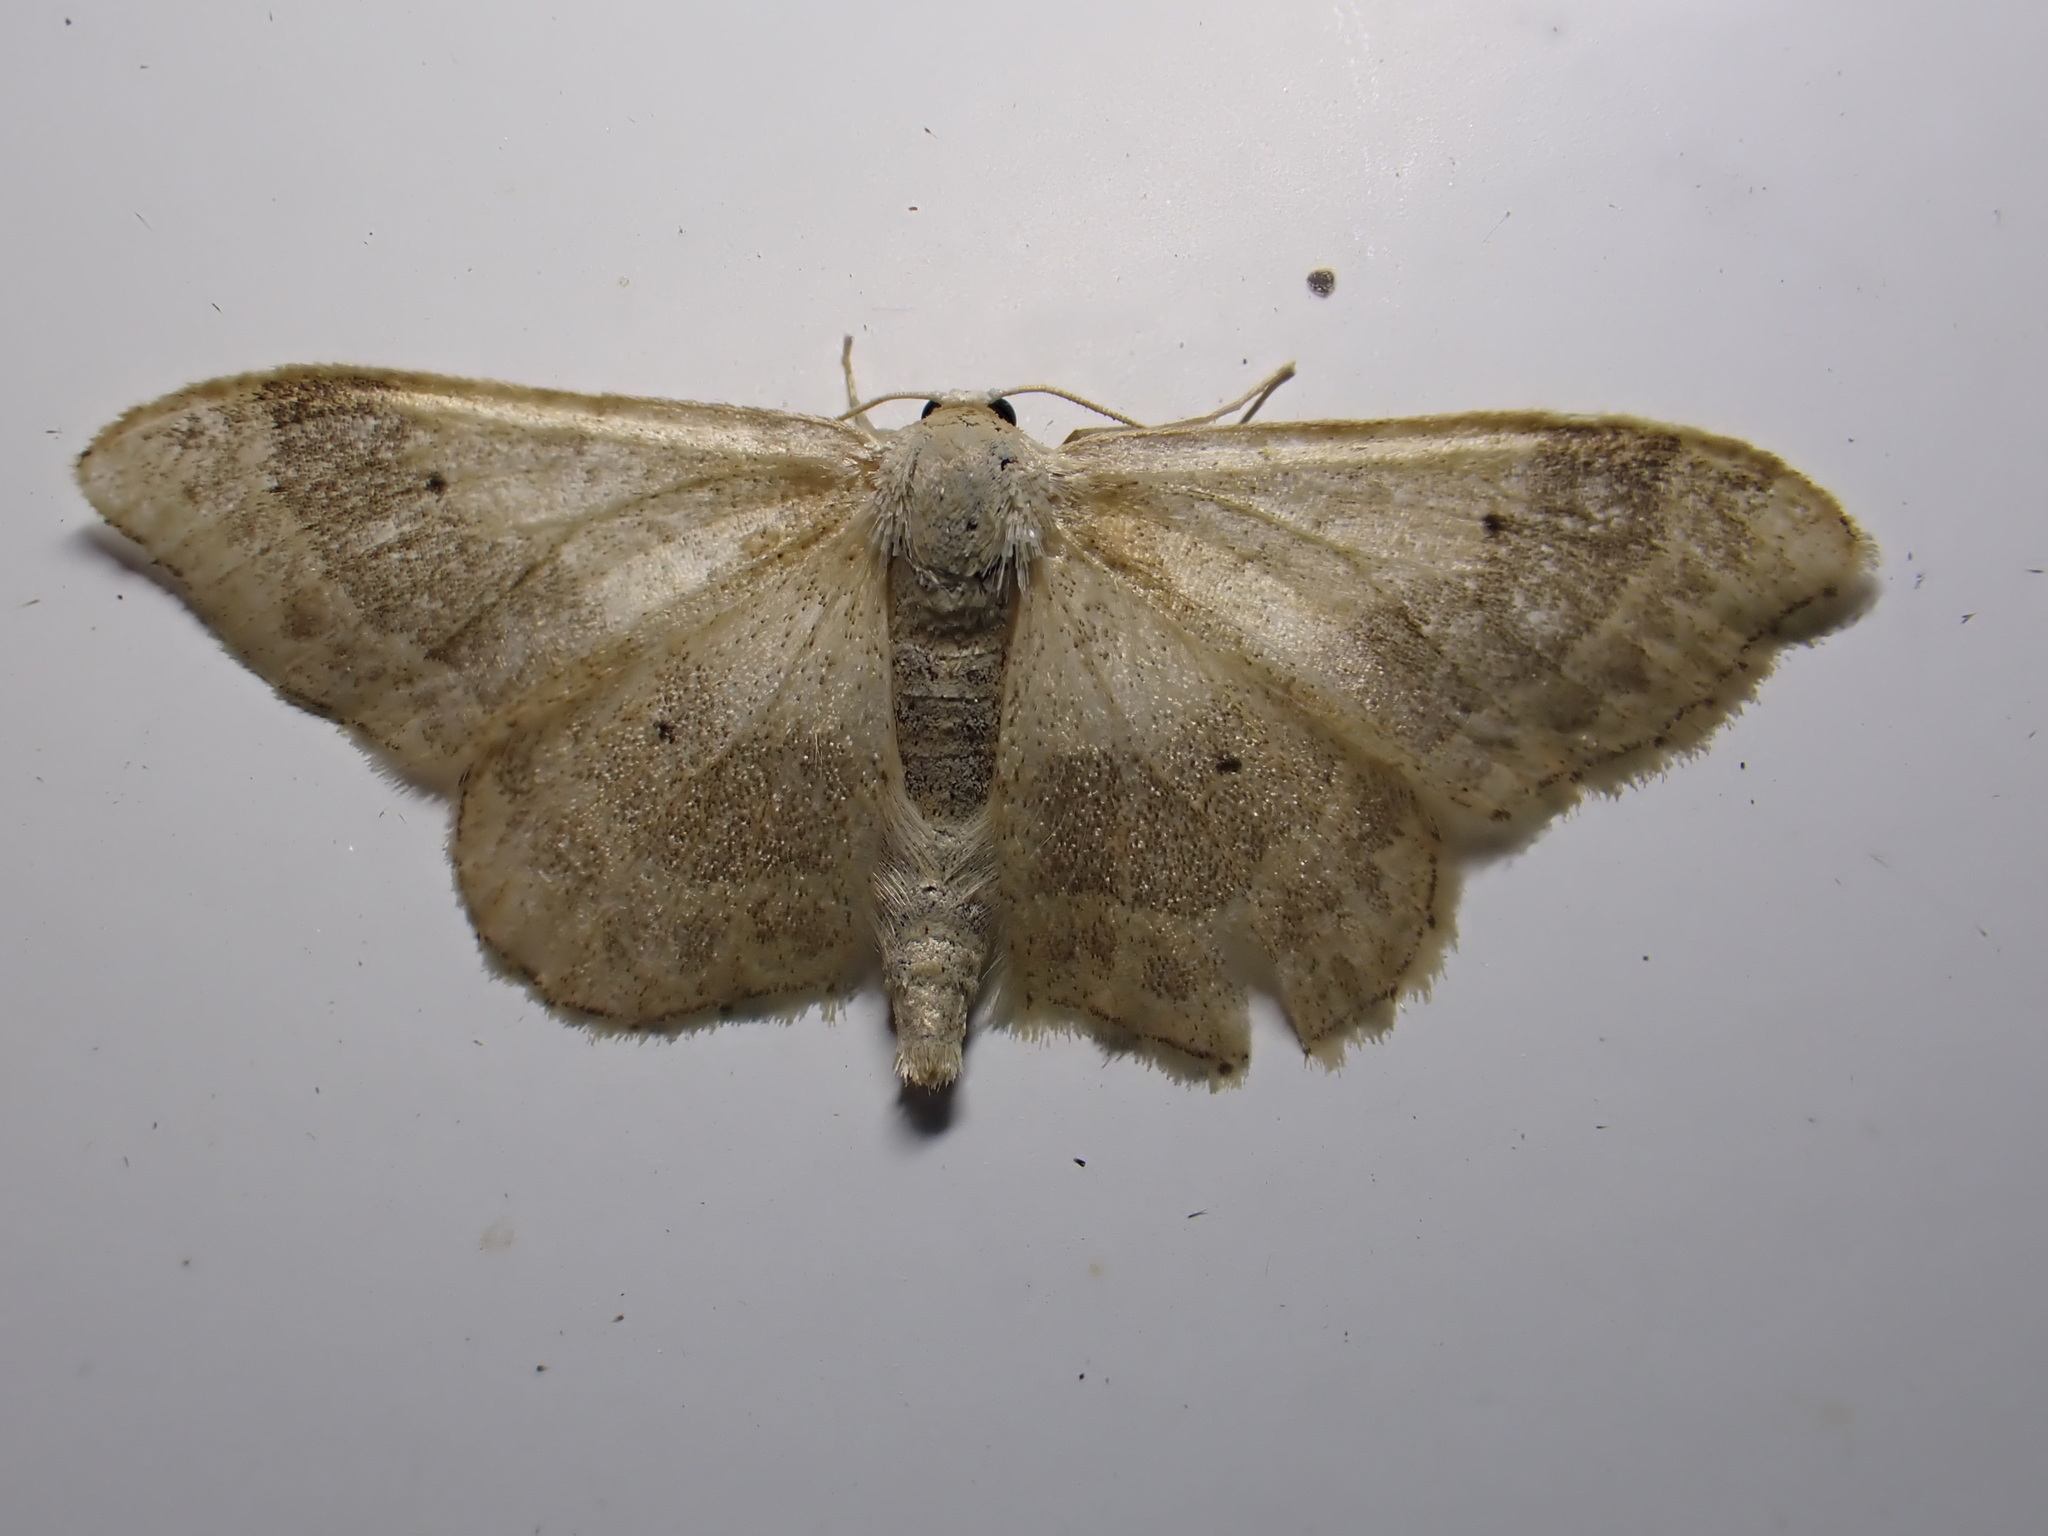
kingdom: Animalia
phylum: Arthropoda
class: Insecta
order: Lepidoptera
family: Geometridae
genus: Idaea
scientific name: Idaea aversata
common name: Riband wave
